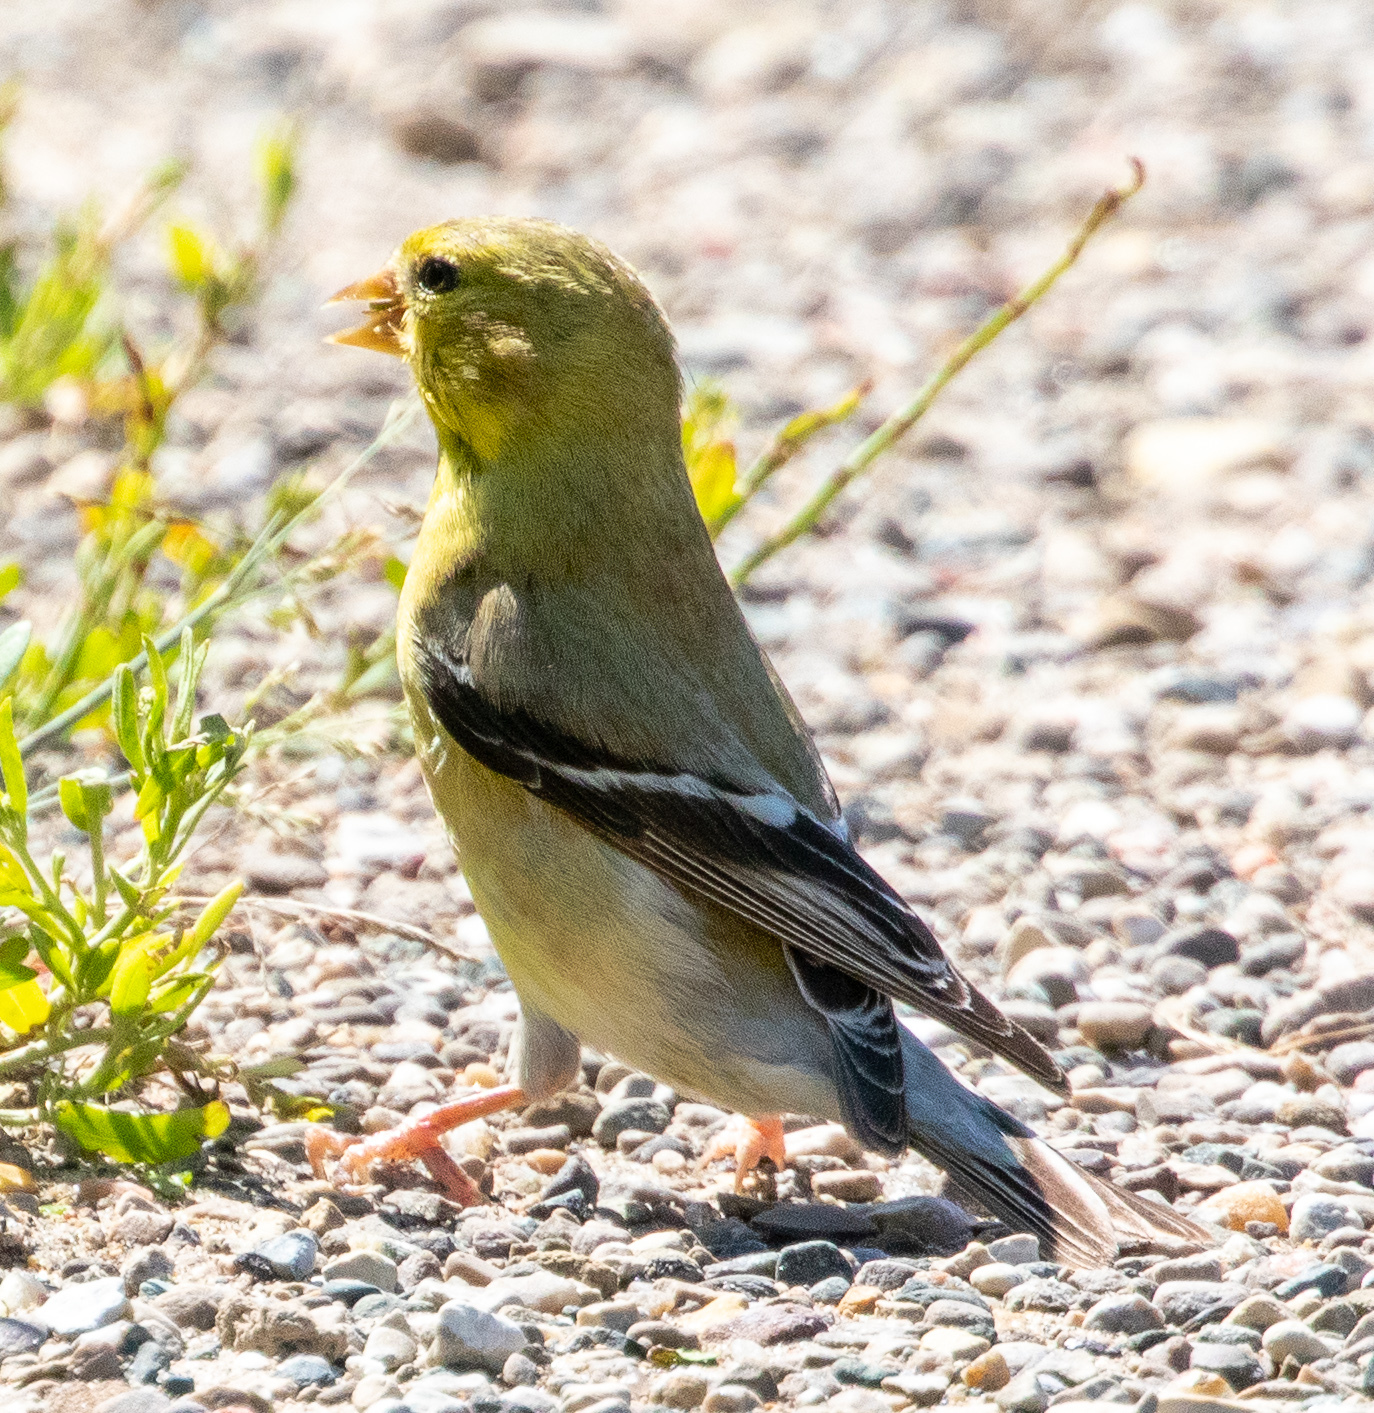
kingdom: Animalia
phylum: Chordata
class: Aves
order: Passeriformes
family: Fringillidae
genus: Spinus
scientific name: Spinus tristis
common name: American goldfinch
